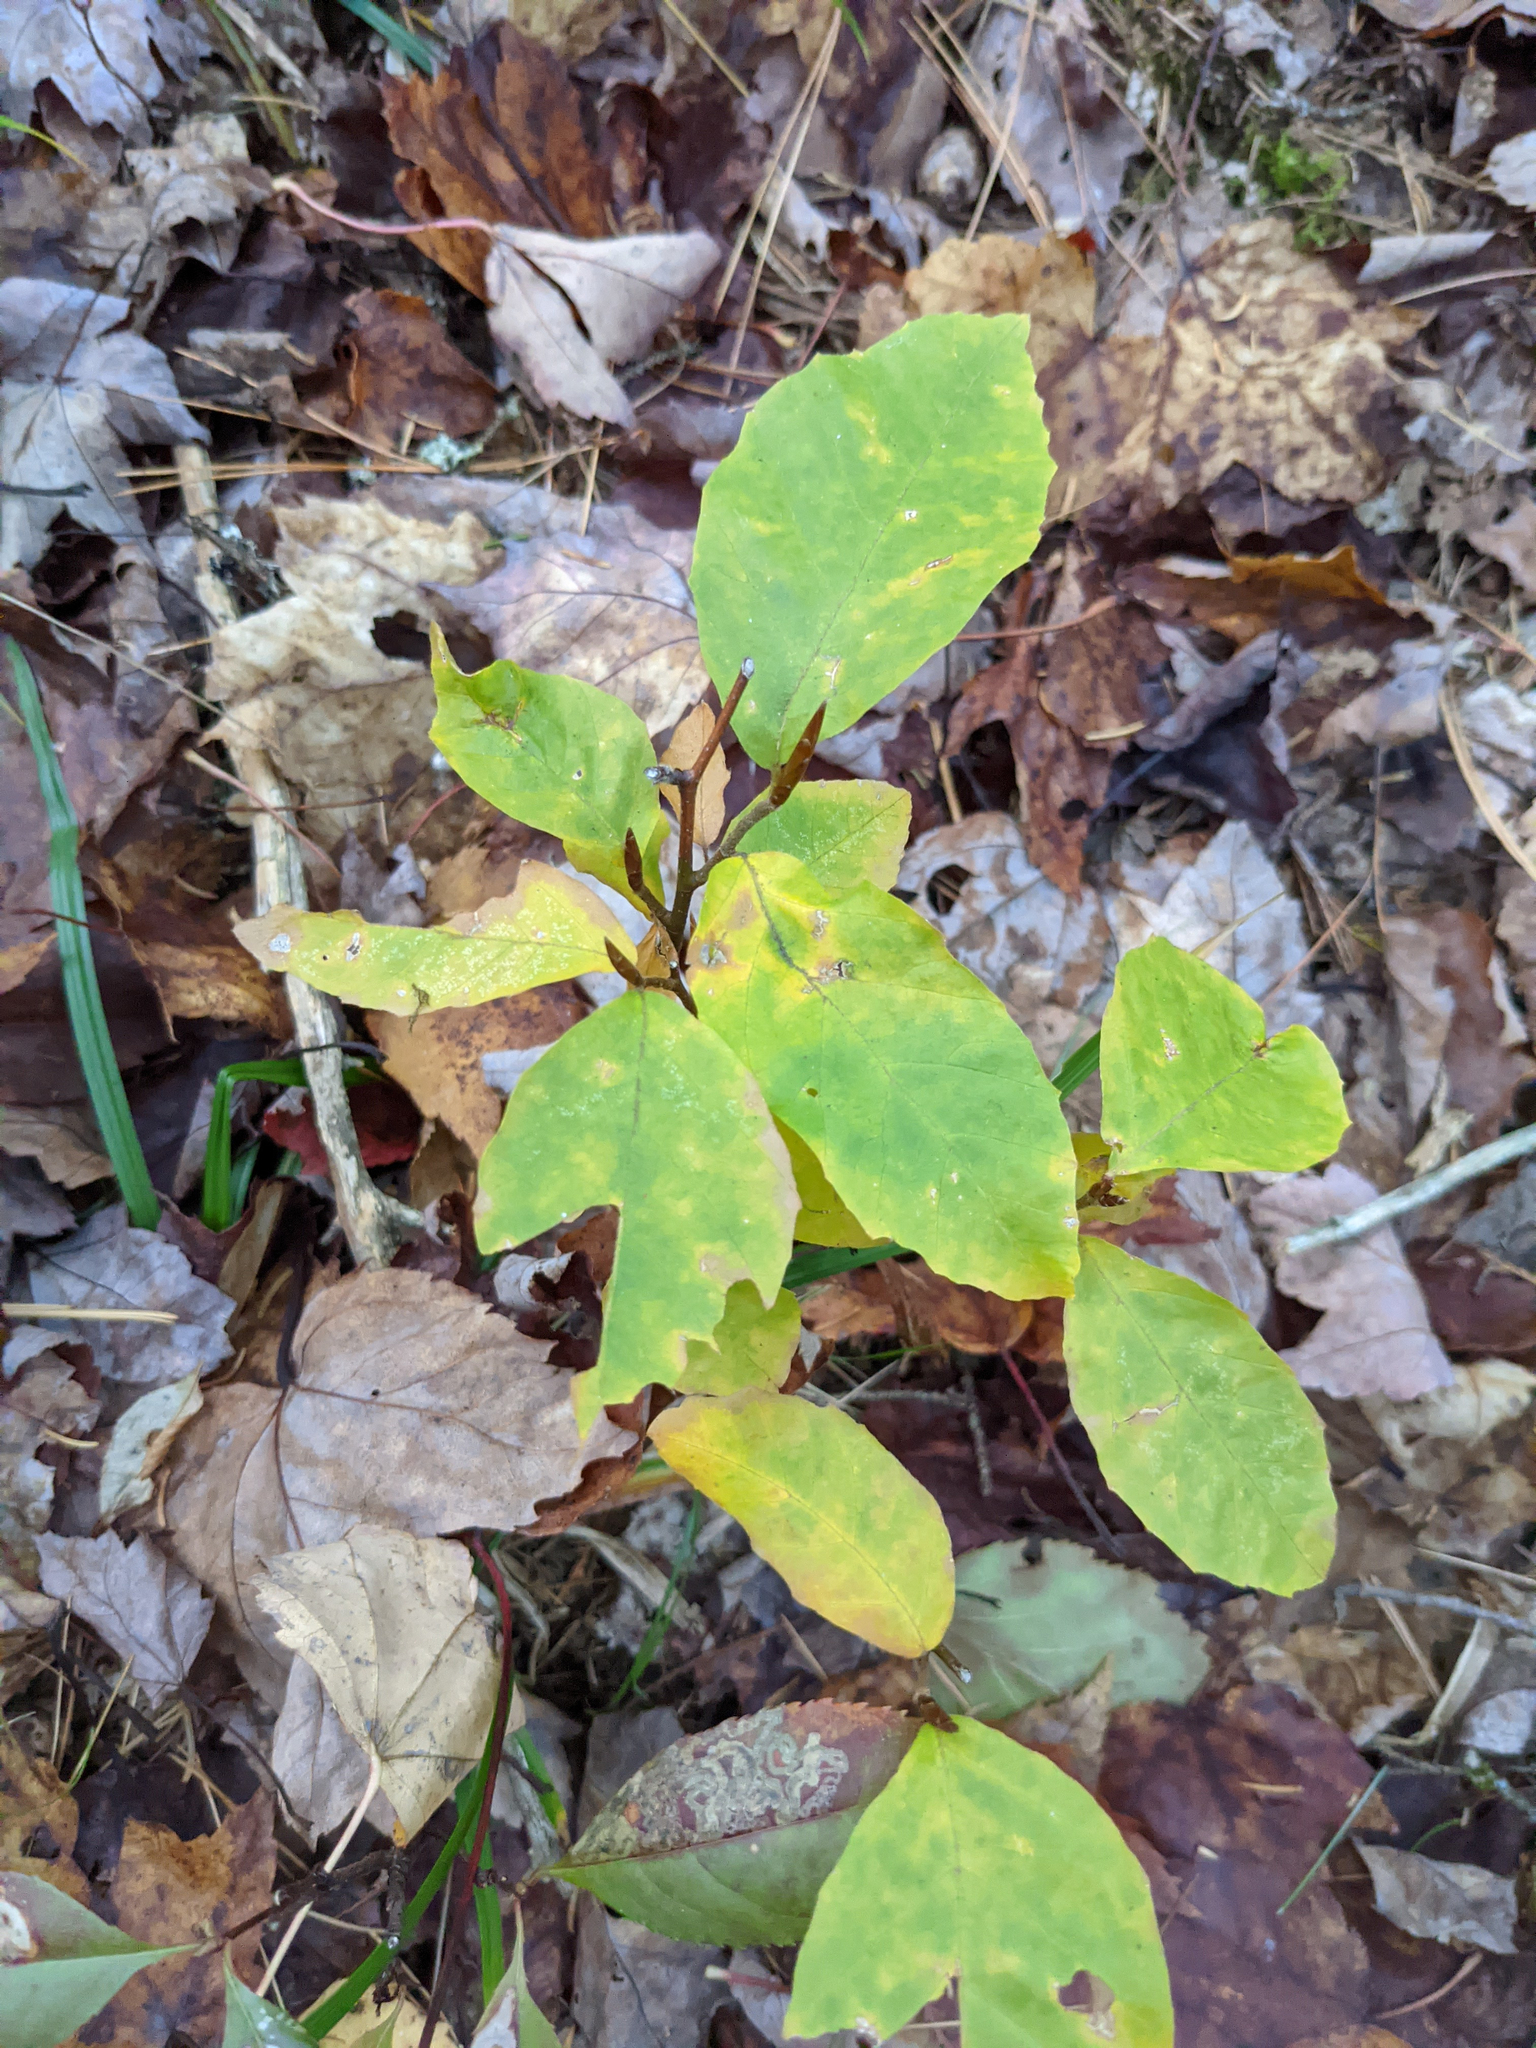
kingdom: Plantae
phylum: Tracheophyta
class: Magnoliopsida
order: Fagales
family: Fagaceae
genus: Fagus
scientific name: Fagus grandifolia
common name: American beech
